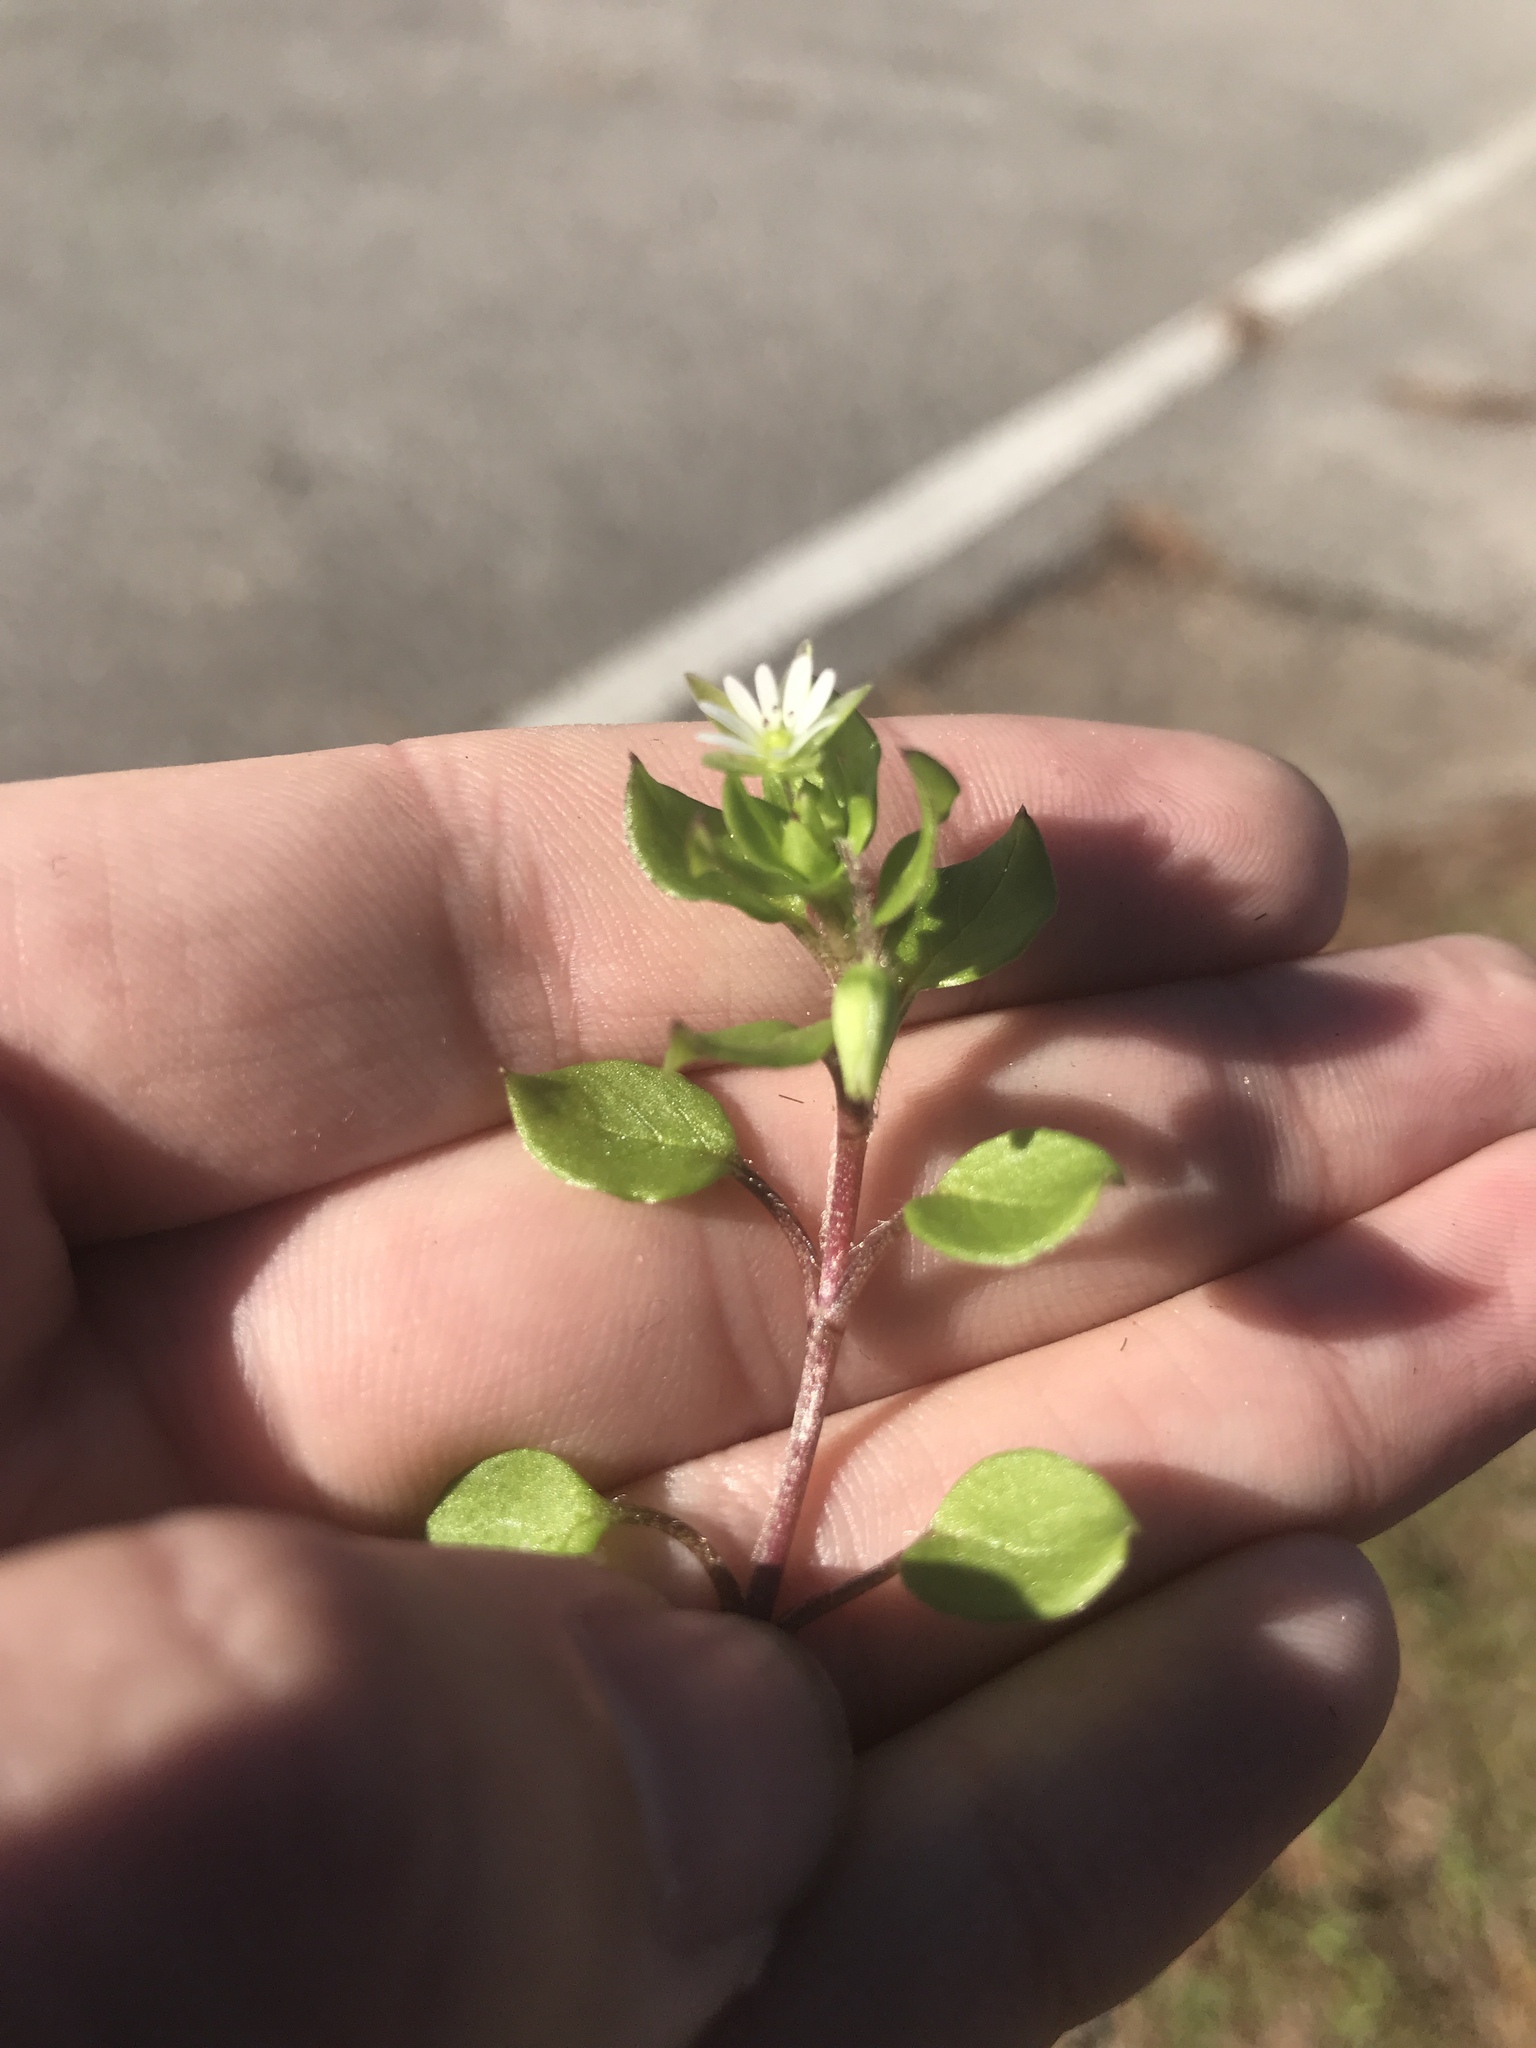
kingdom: Plantae
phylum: Tracheophyta
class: Magnoliopsida
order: Caryophyllales
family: Caryophyllaceae
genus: Stellaria
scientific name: Stellaria media
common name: Common chickweed
